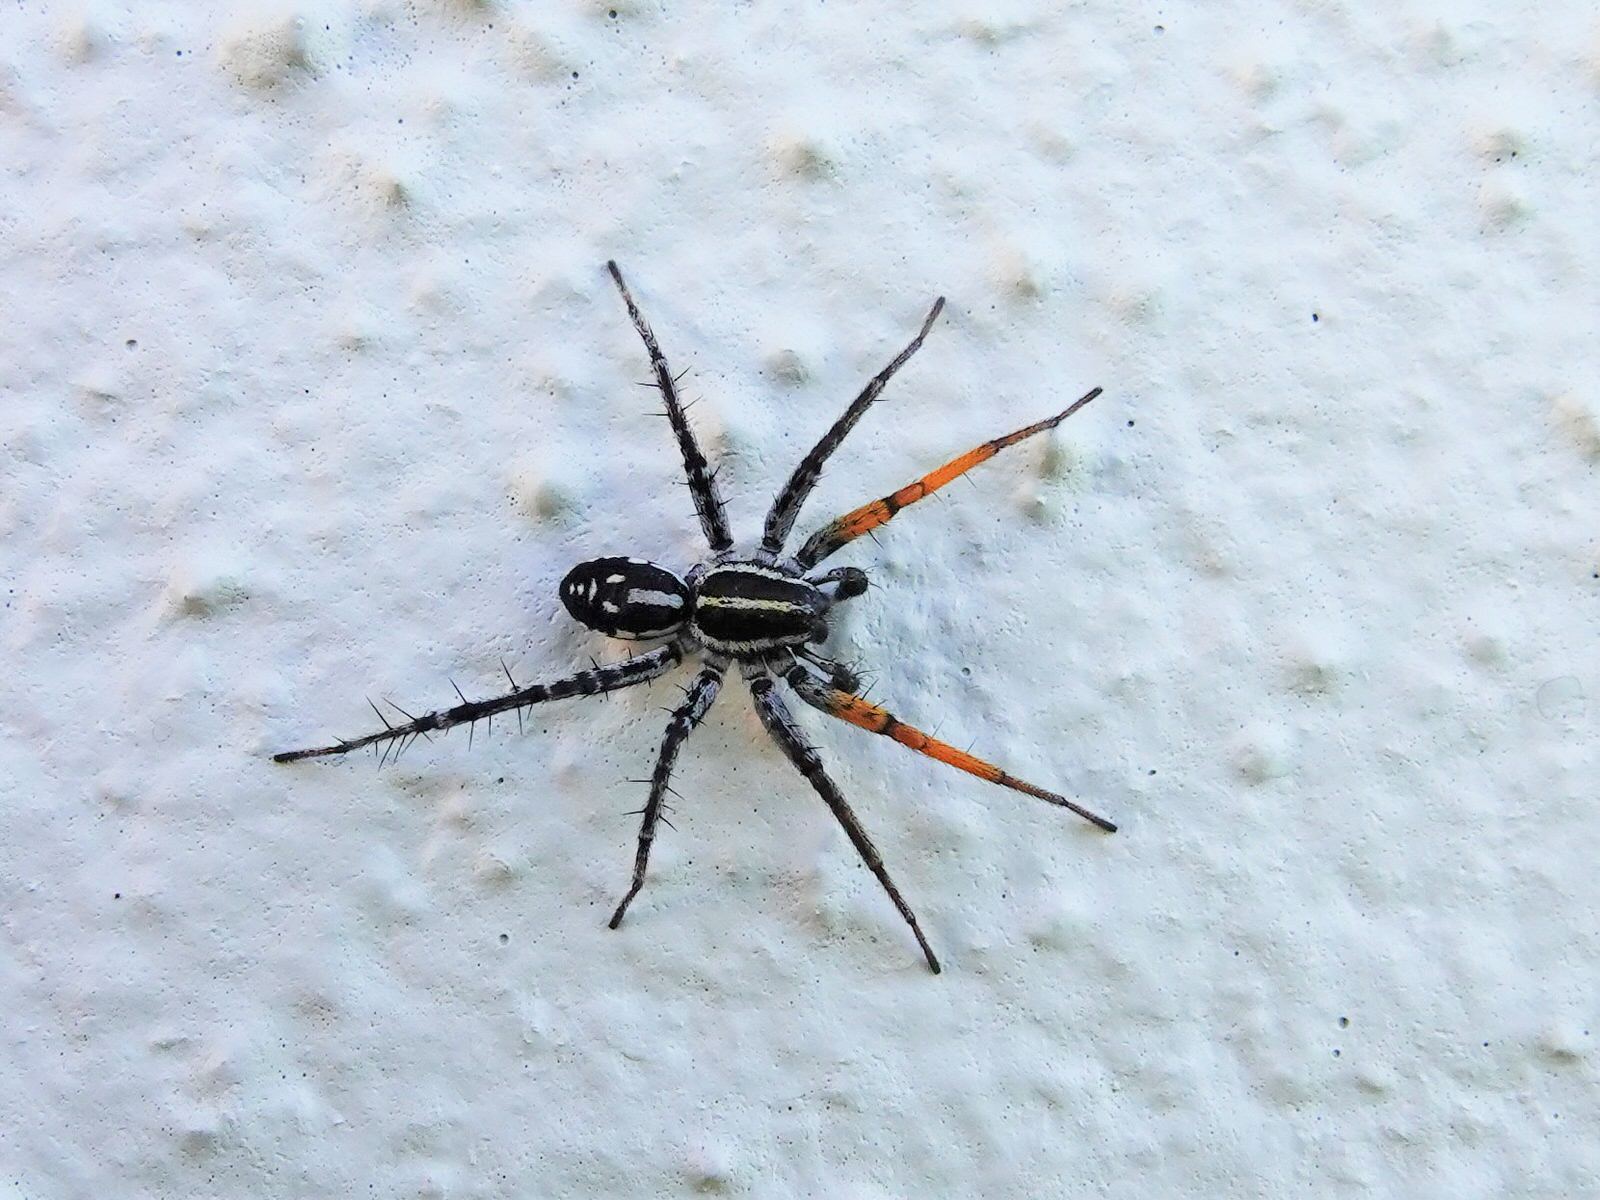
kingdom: Animalia
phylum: Arthropoda
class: Arachnida
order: Araneae
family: Corinnidae
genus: Nyssus
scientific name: Nyssus coloripes
